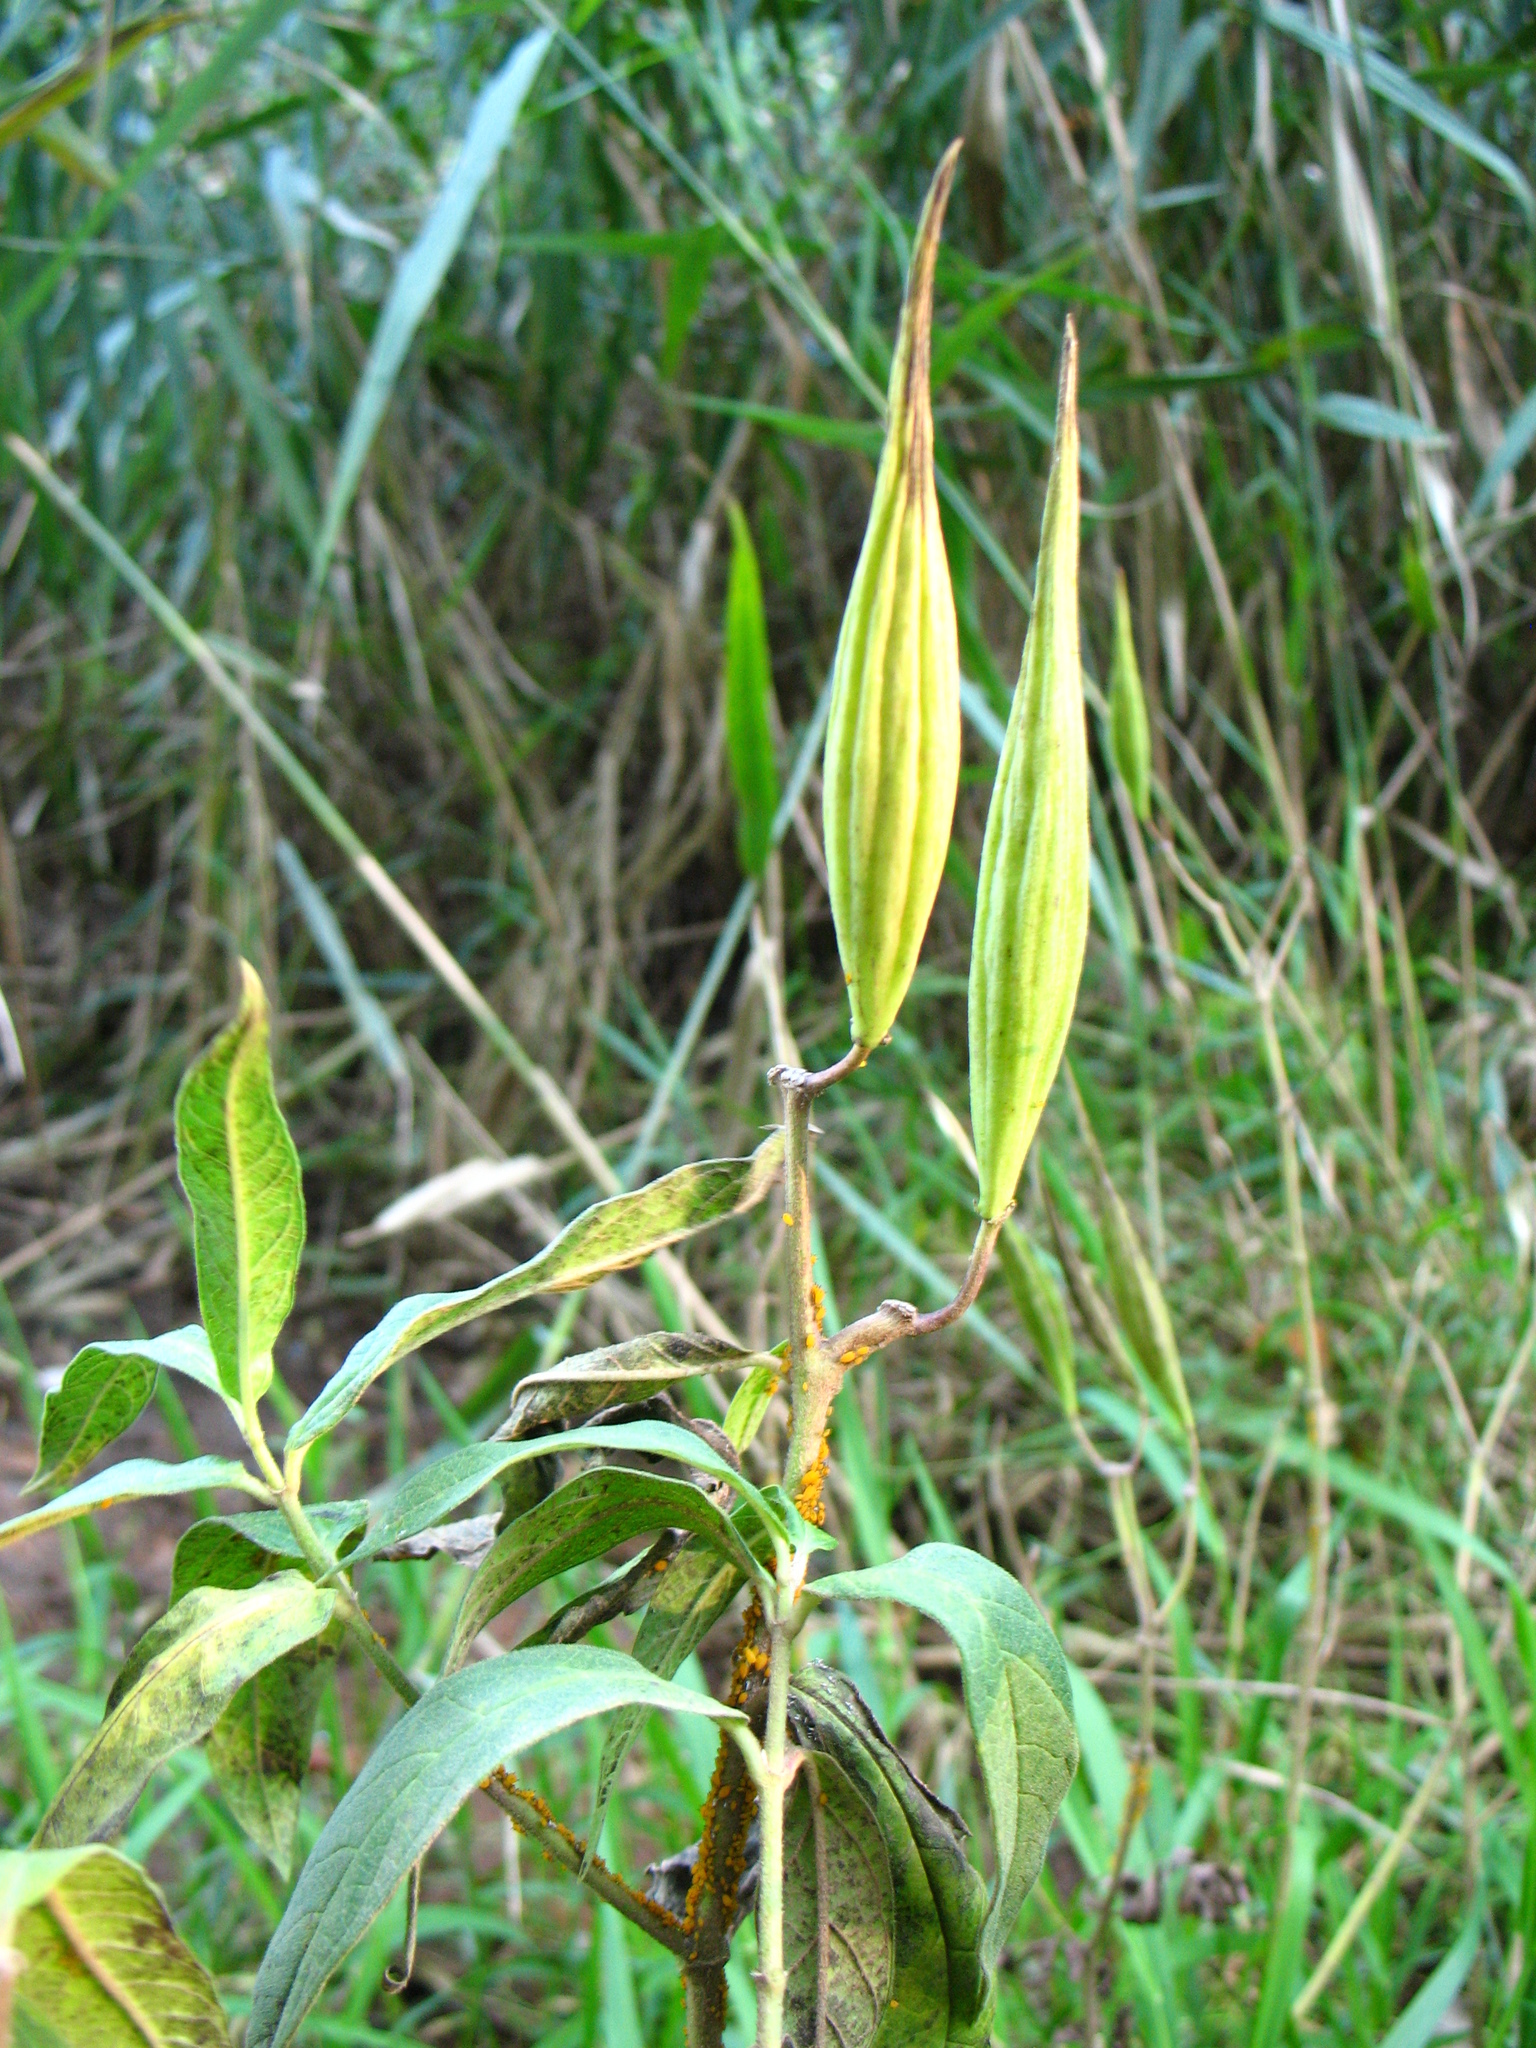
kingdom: Plantae
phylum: Tracheophyta
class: Magnoliopsida
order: Gentianales
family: Apocynaceae
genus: Asclepias
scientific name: Asclepias incarnata
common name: Swamp milkweed
